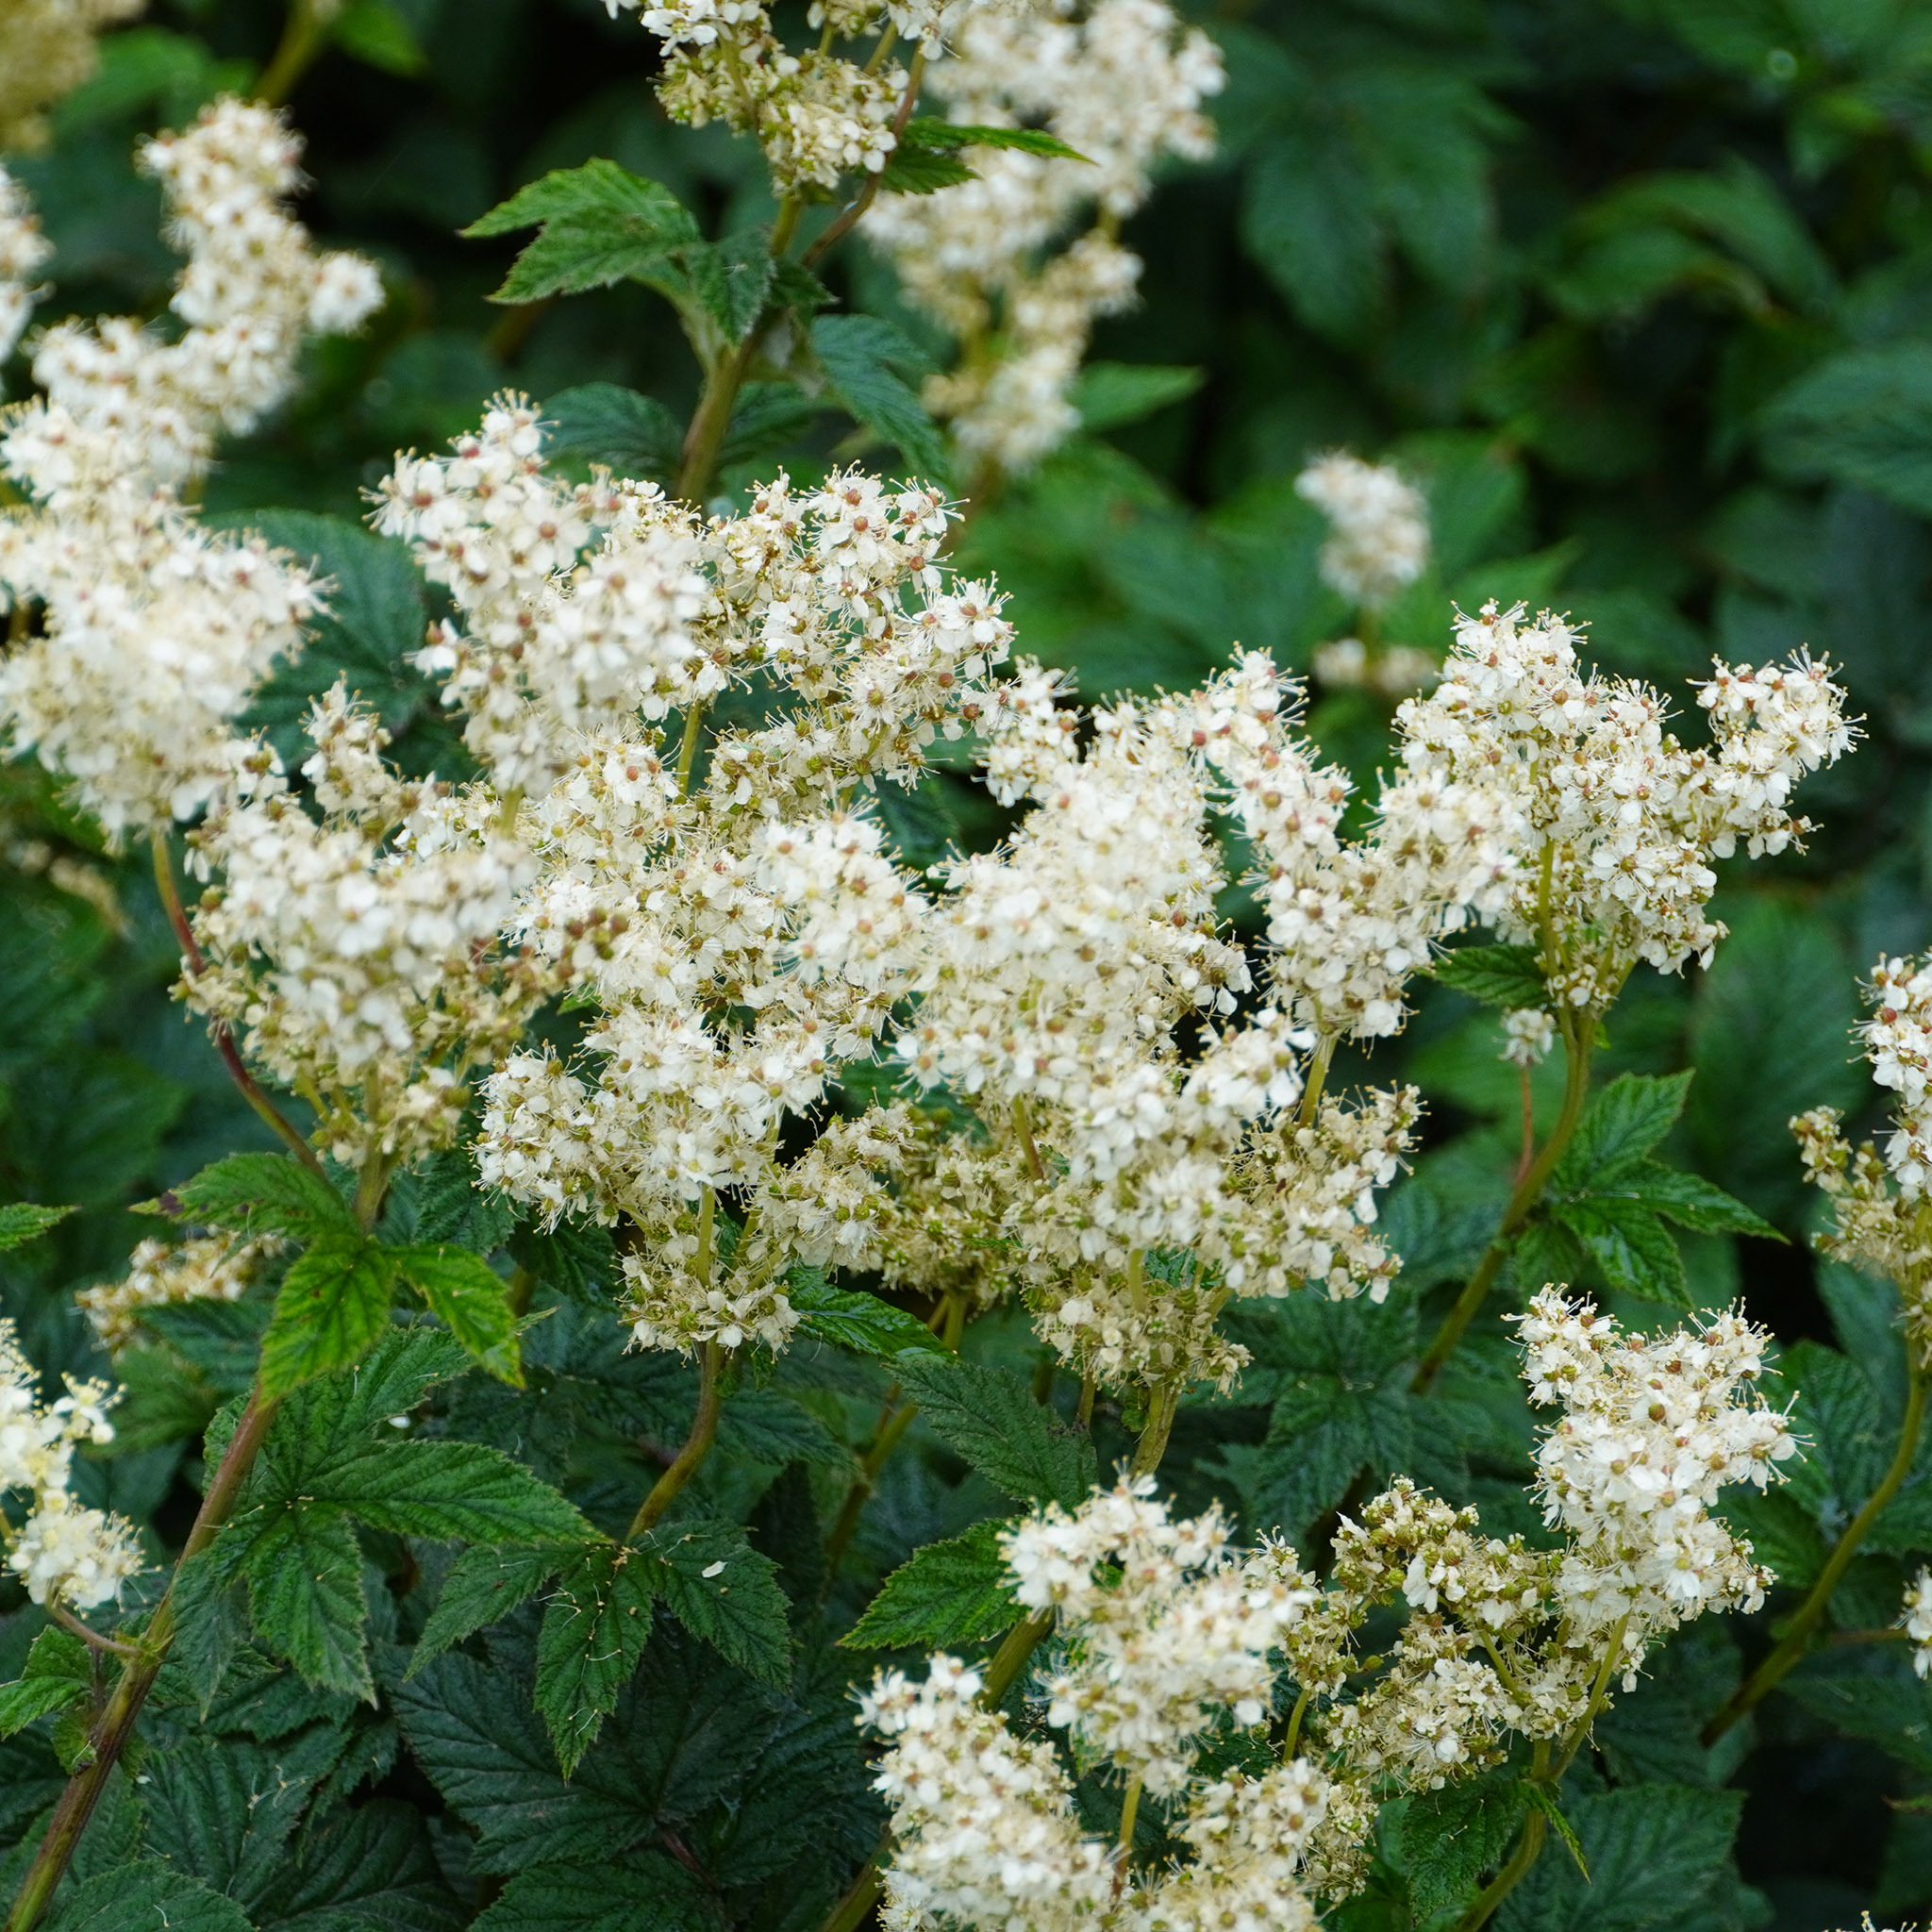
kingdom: Plantae
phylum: Tracheophyta
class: Magnoliopsida
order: Rosales
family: Rosaceae
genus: Filipendula
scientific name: Filipendula ulmaria
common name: Meadowsweet
